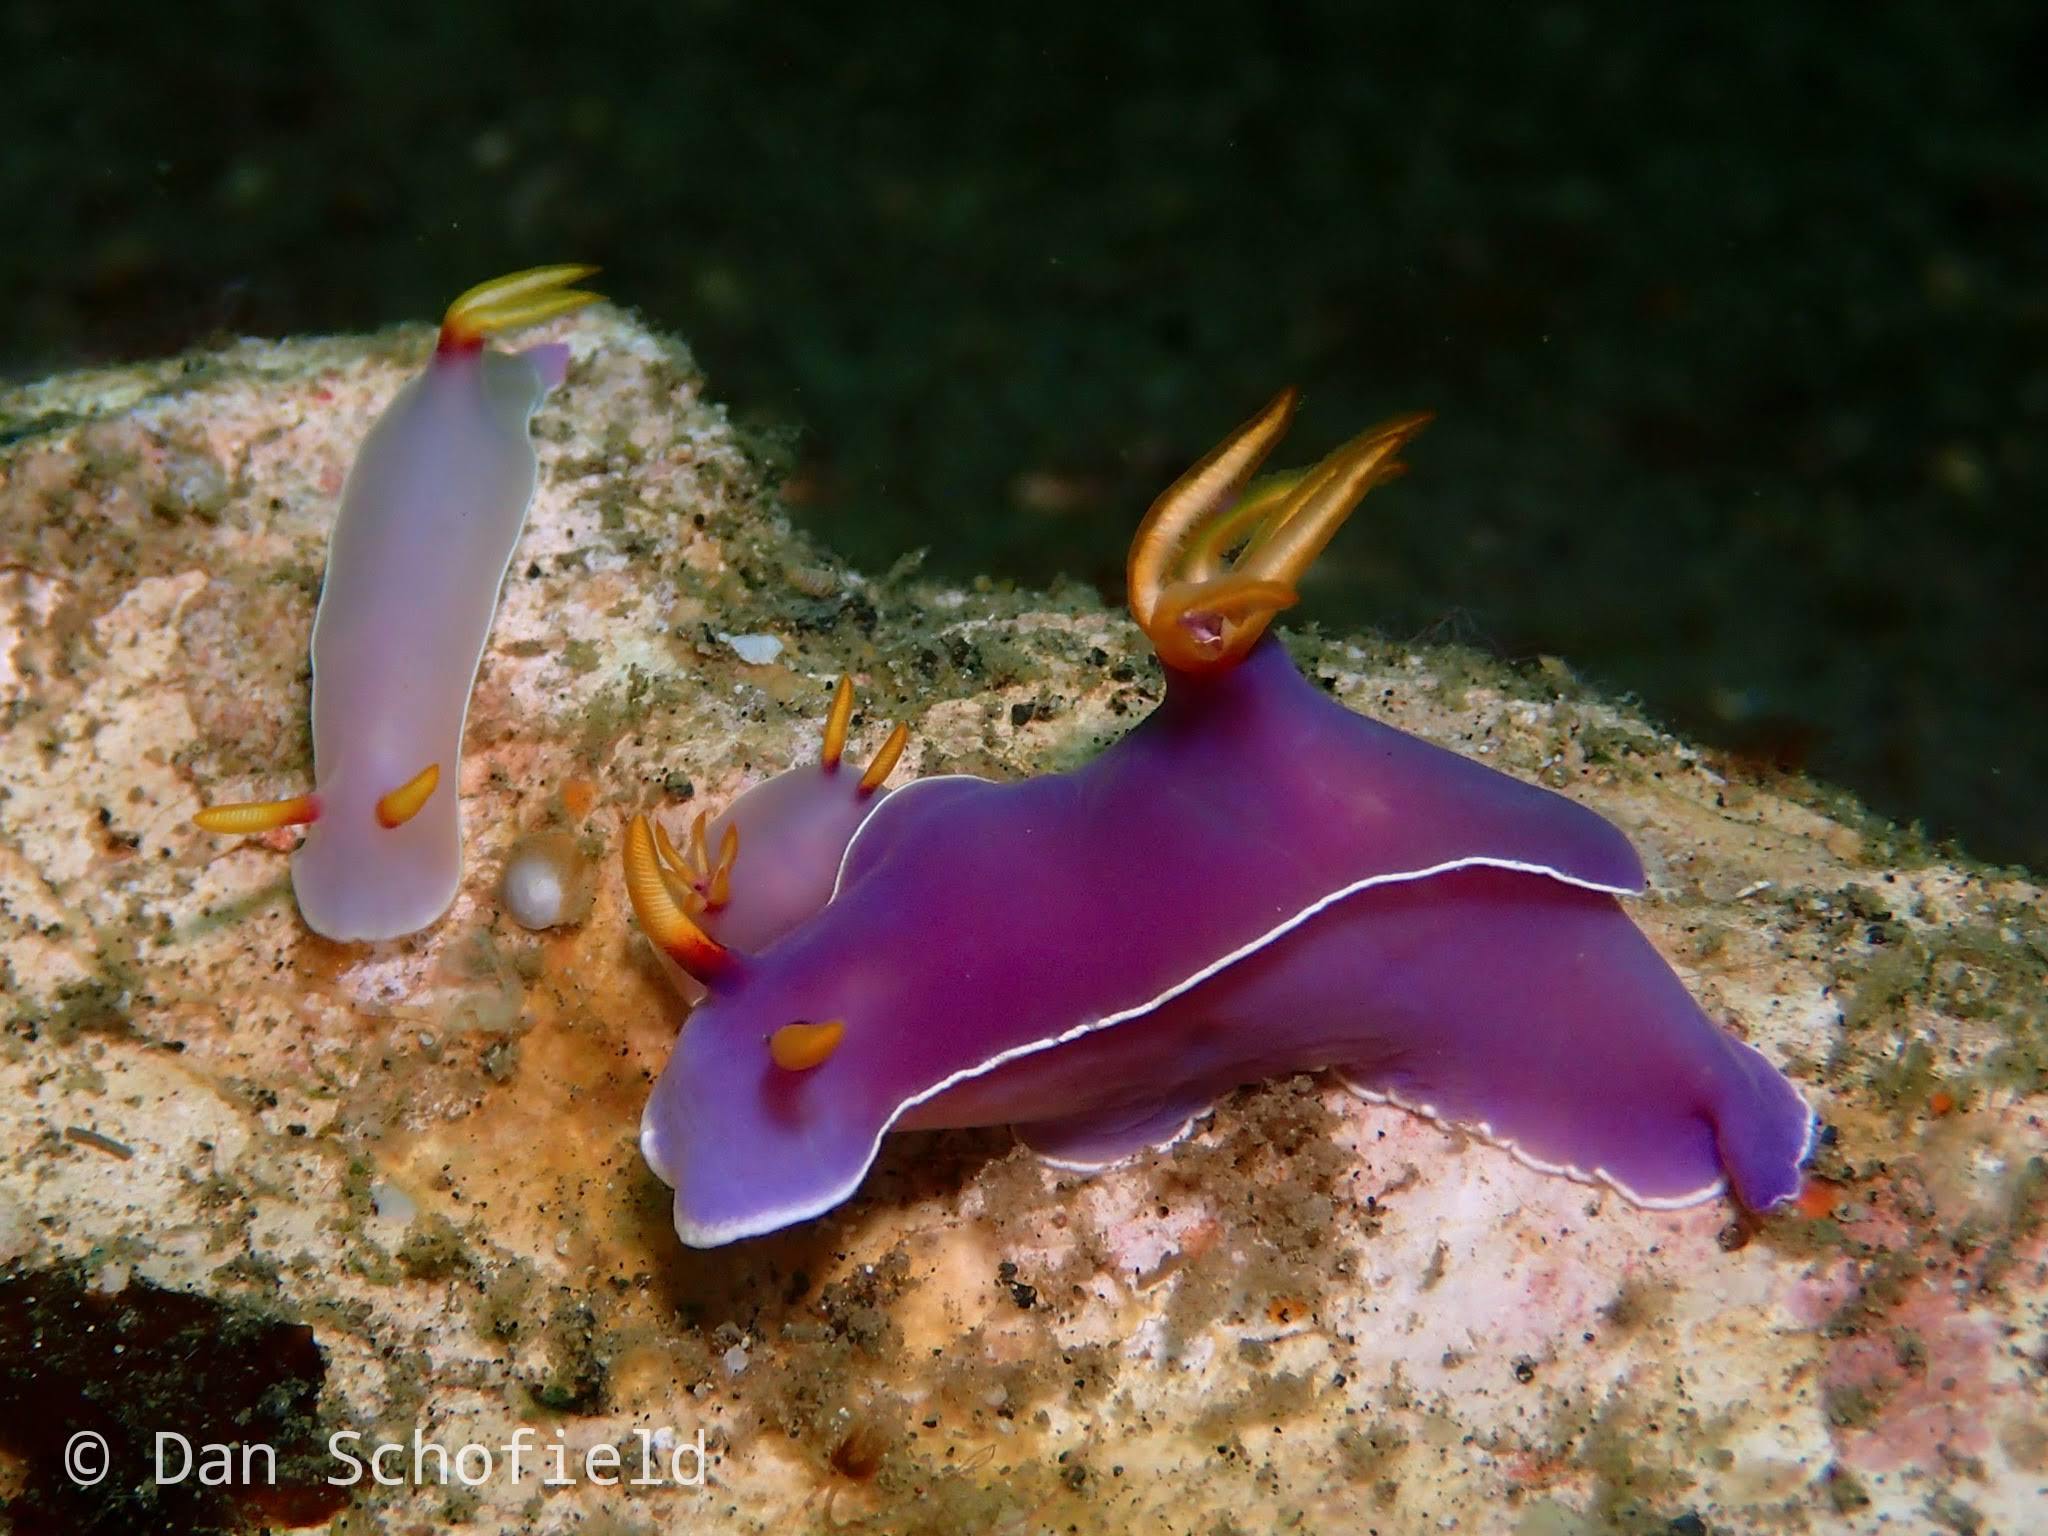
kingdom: Animalia
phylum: Mollusca
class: Gastropoda
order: Nudibranchia
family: Chromodorididae
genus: Hypselodoris
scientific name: Hypselodoris bullockii
